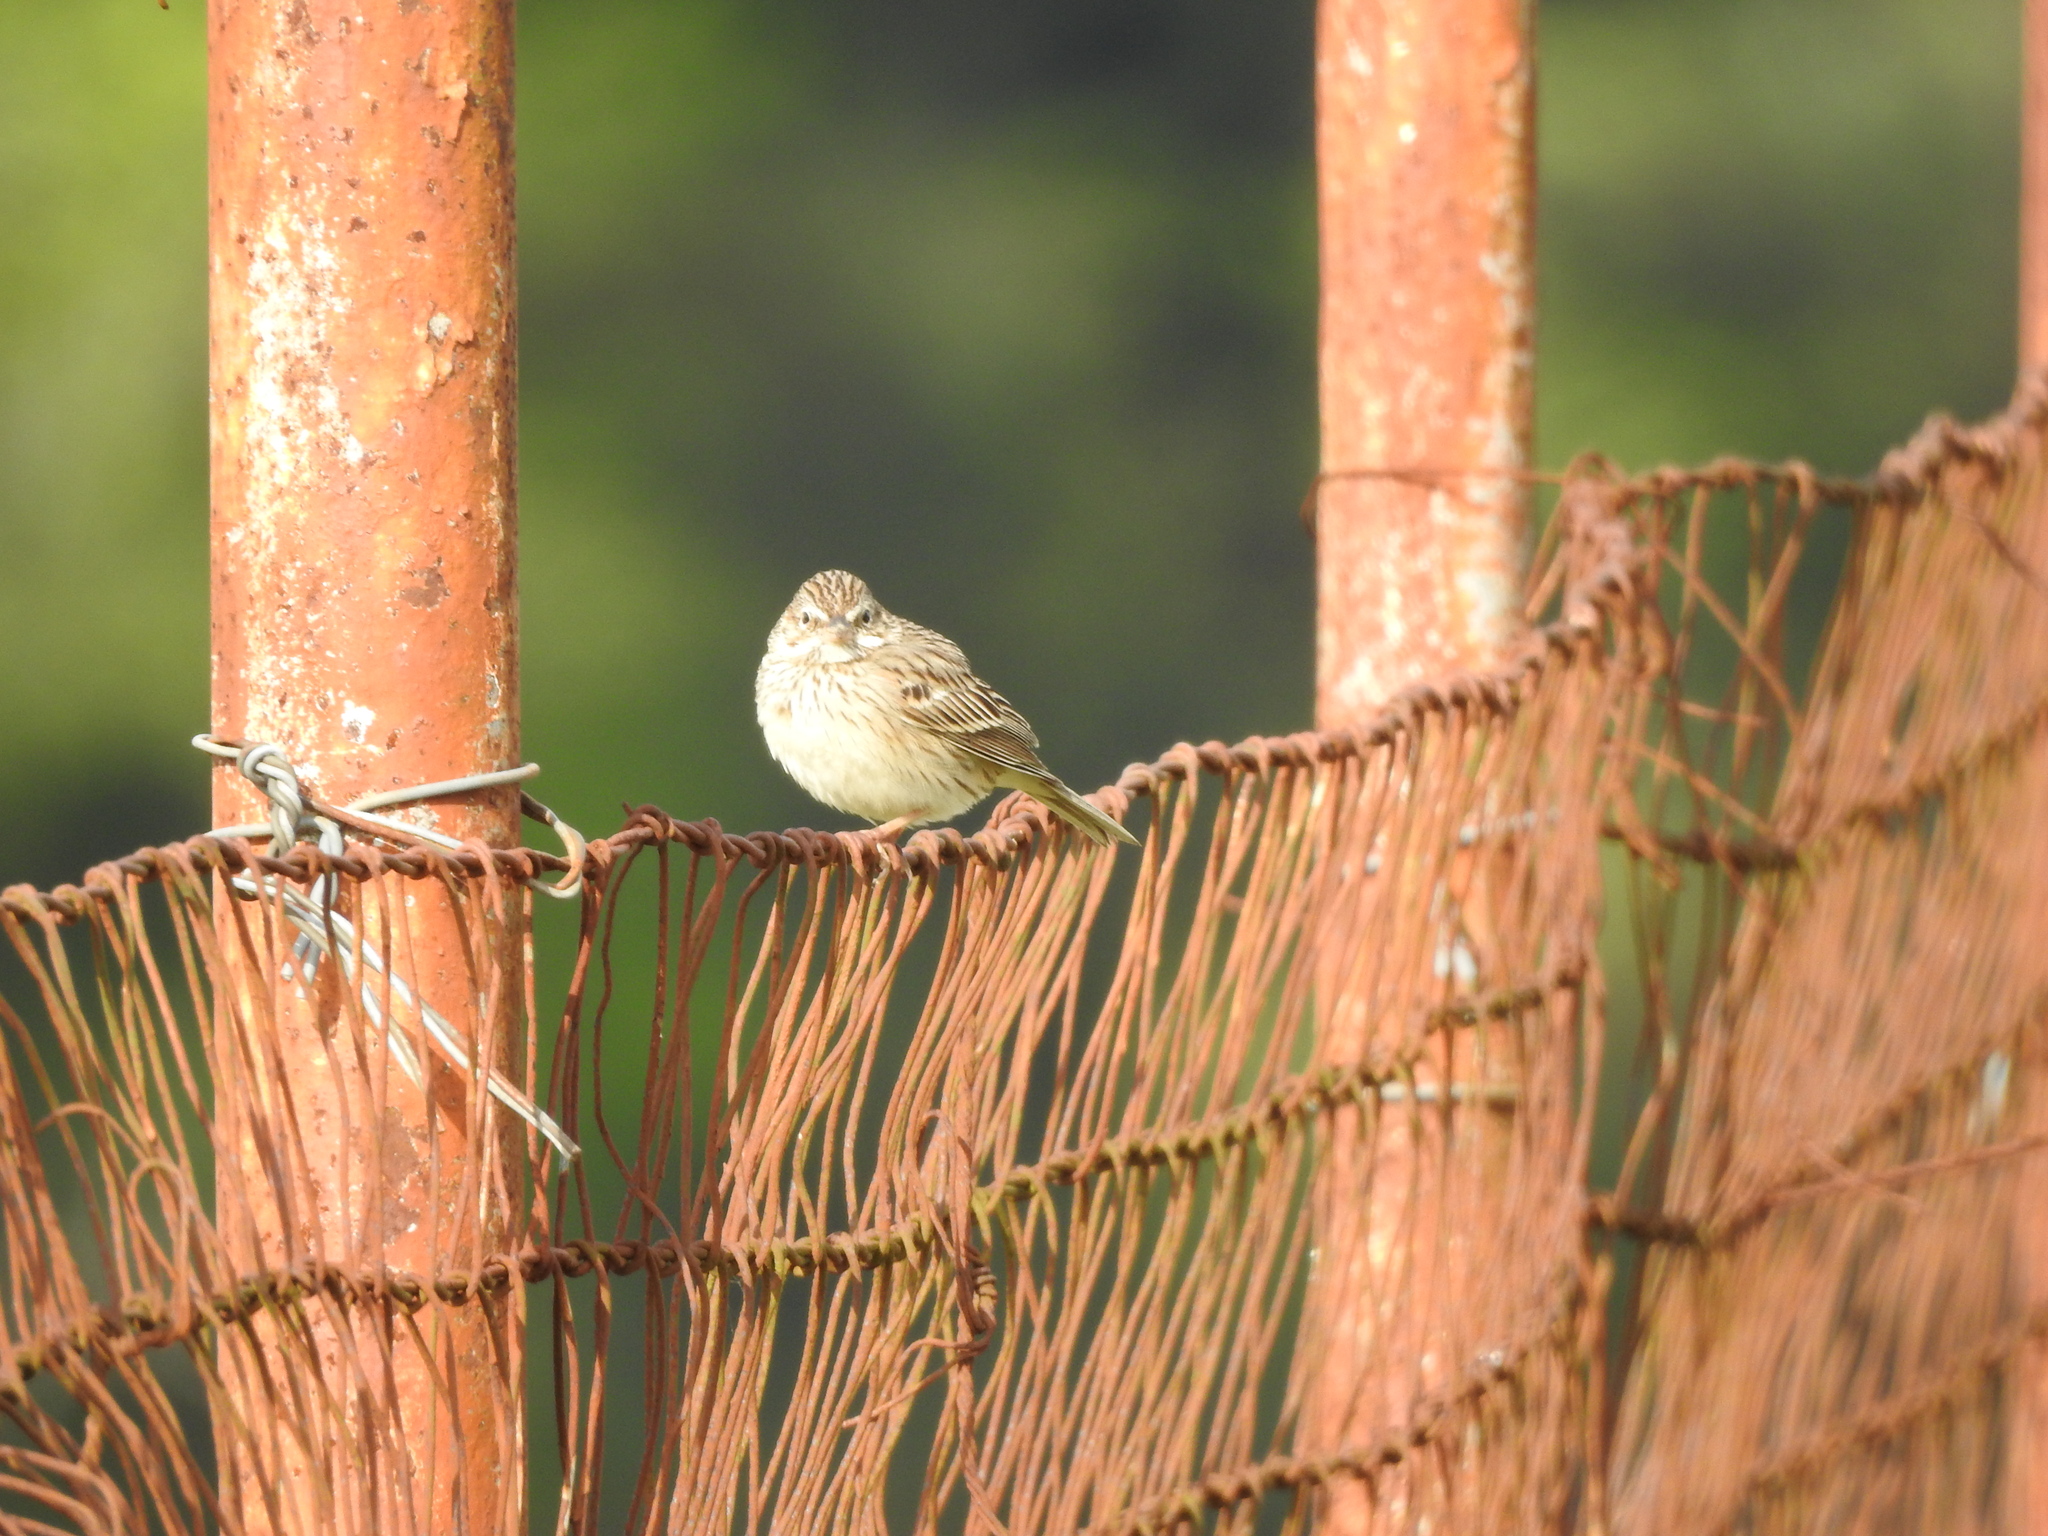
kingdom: Animalia
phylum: Chordata
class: Aves
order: Passeriformes
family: Passerellidae
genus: Pooecetes
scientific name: Pooecetes gramineus
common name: Vesper sparrow
